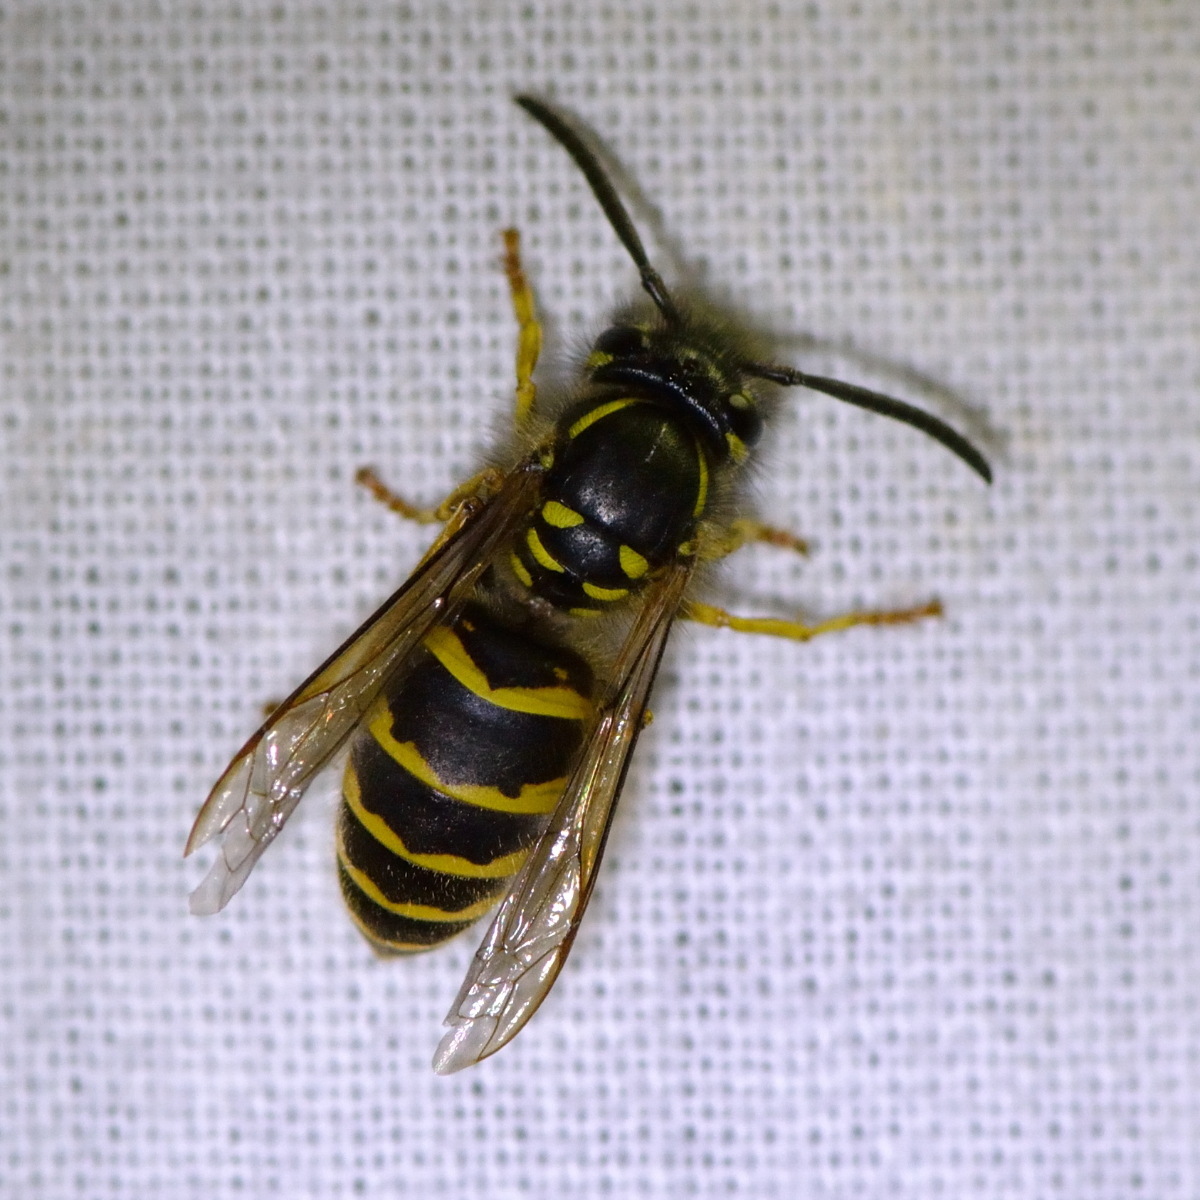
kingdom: Animalia
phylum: Arthropoda
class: Insecta
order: Hymenoptera
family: Vespidae
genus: Vespula
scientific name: Vespula vulgaris
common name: Common wasp
